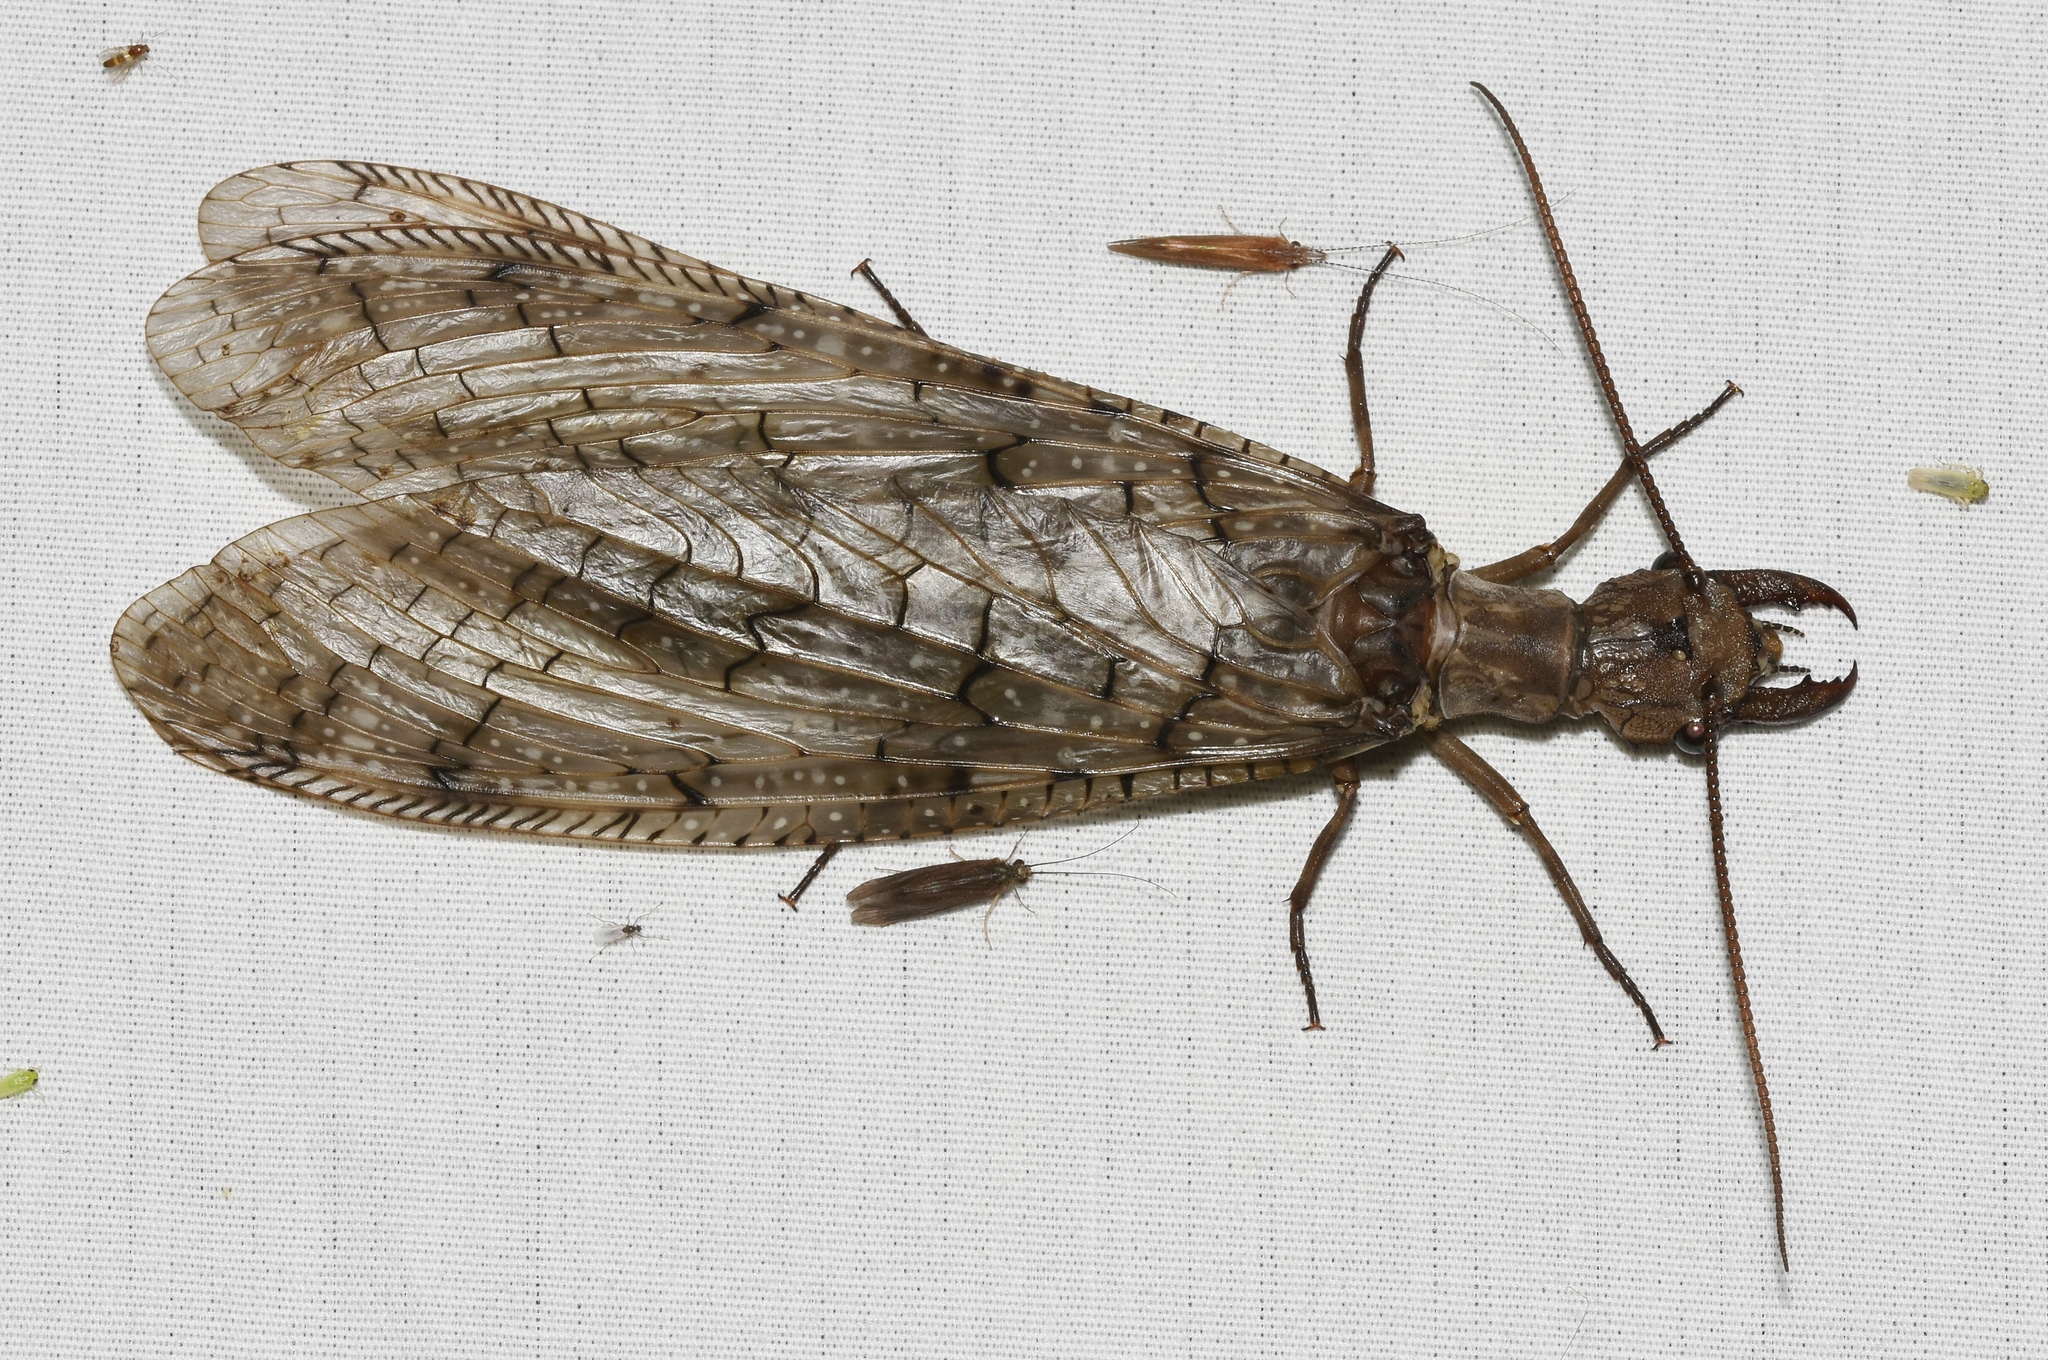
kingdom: Animalia
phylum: Arthropoda
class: Insecta
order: Megaloptera
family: Corydalidae
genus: Corydalus
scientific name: Corydalus cornutus
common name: Dobsonfly
